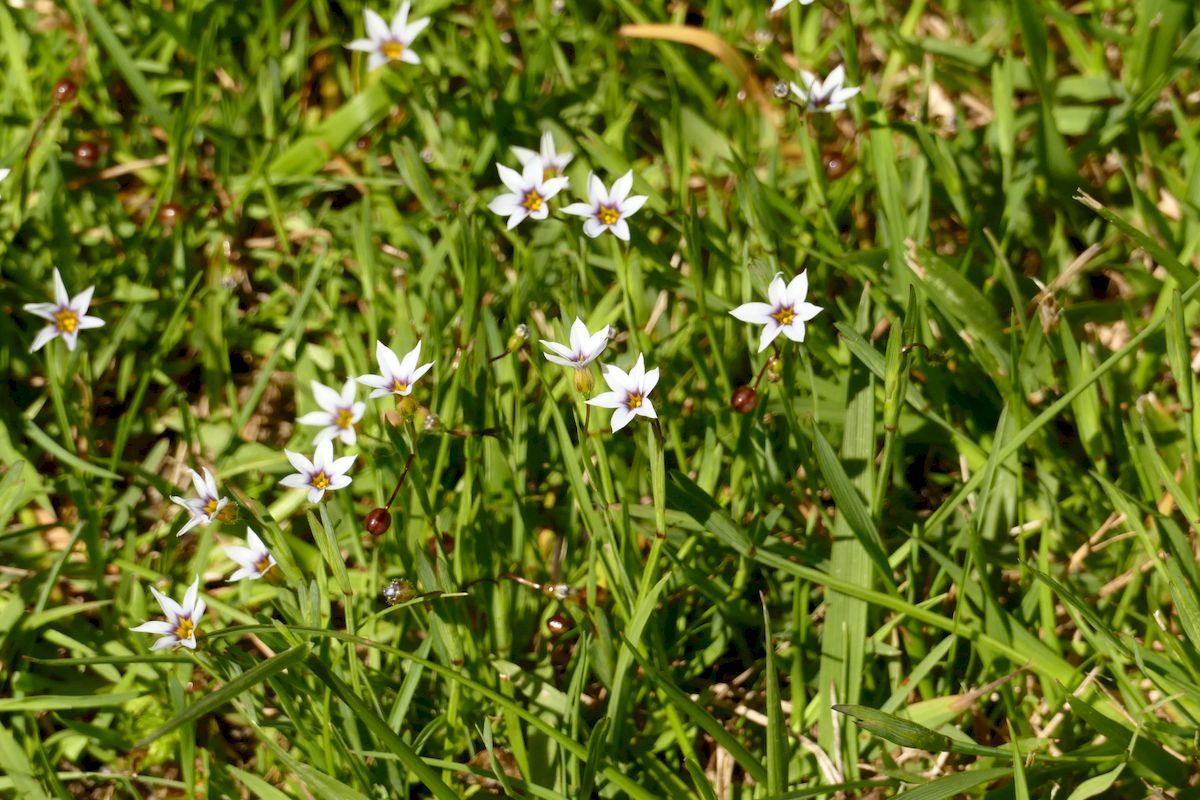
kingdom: Plantae
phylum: Tracheophyta
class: Liliopsida
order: Asparagales
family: Iridaceae
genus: Sisyrinchium
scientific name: Sisyrinchium micranthum
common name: Bermuda pigroot
